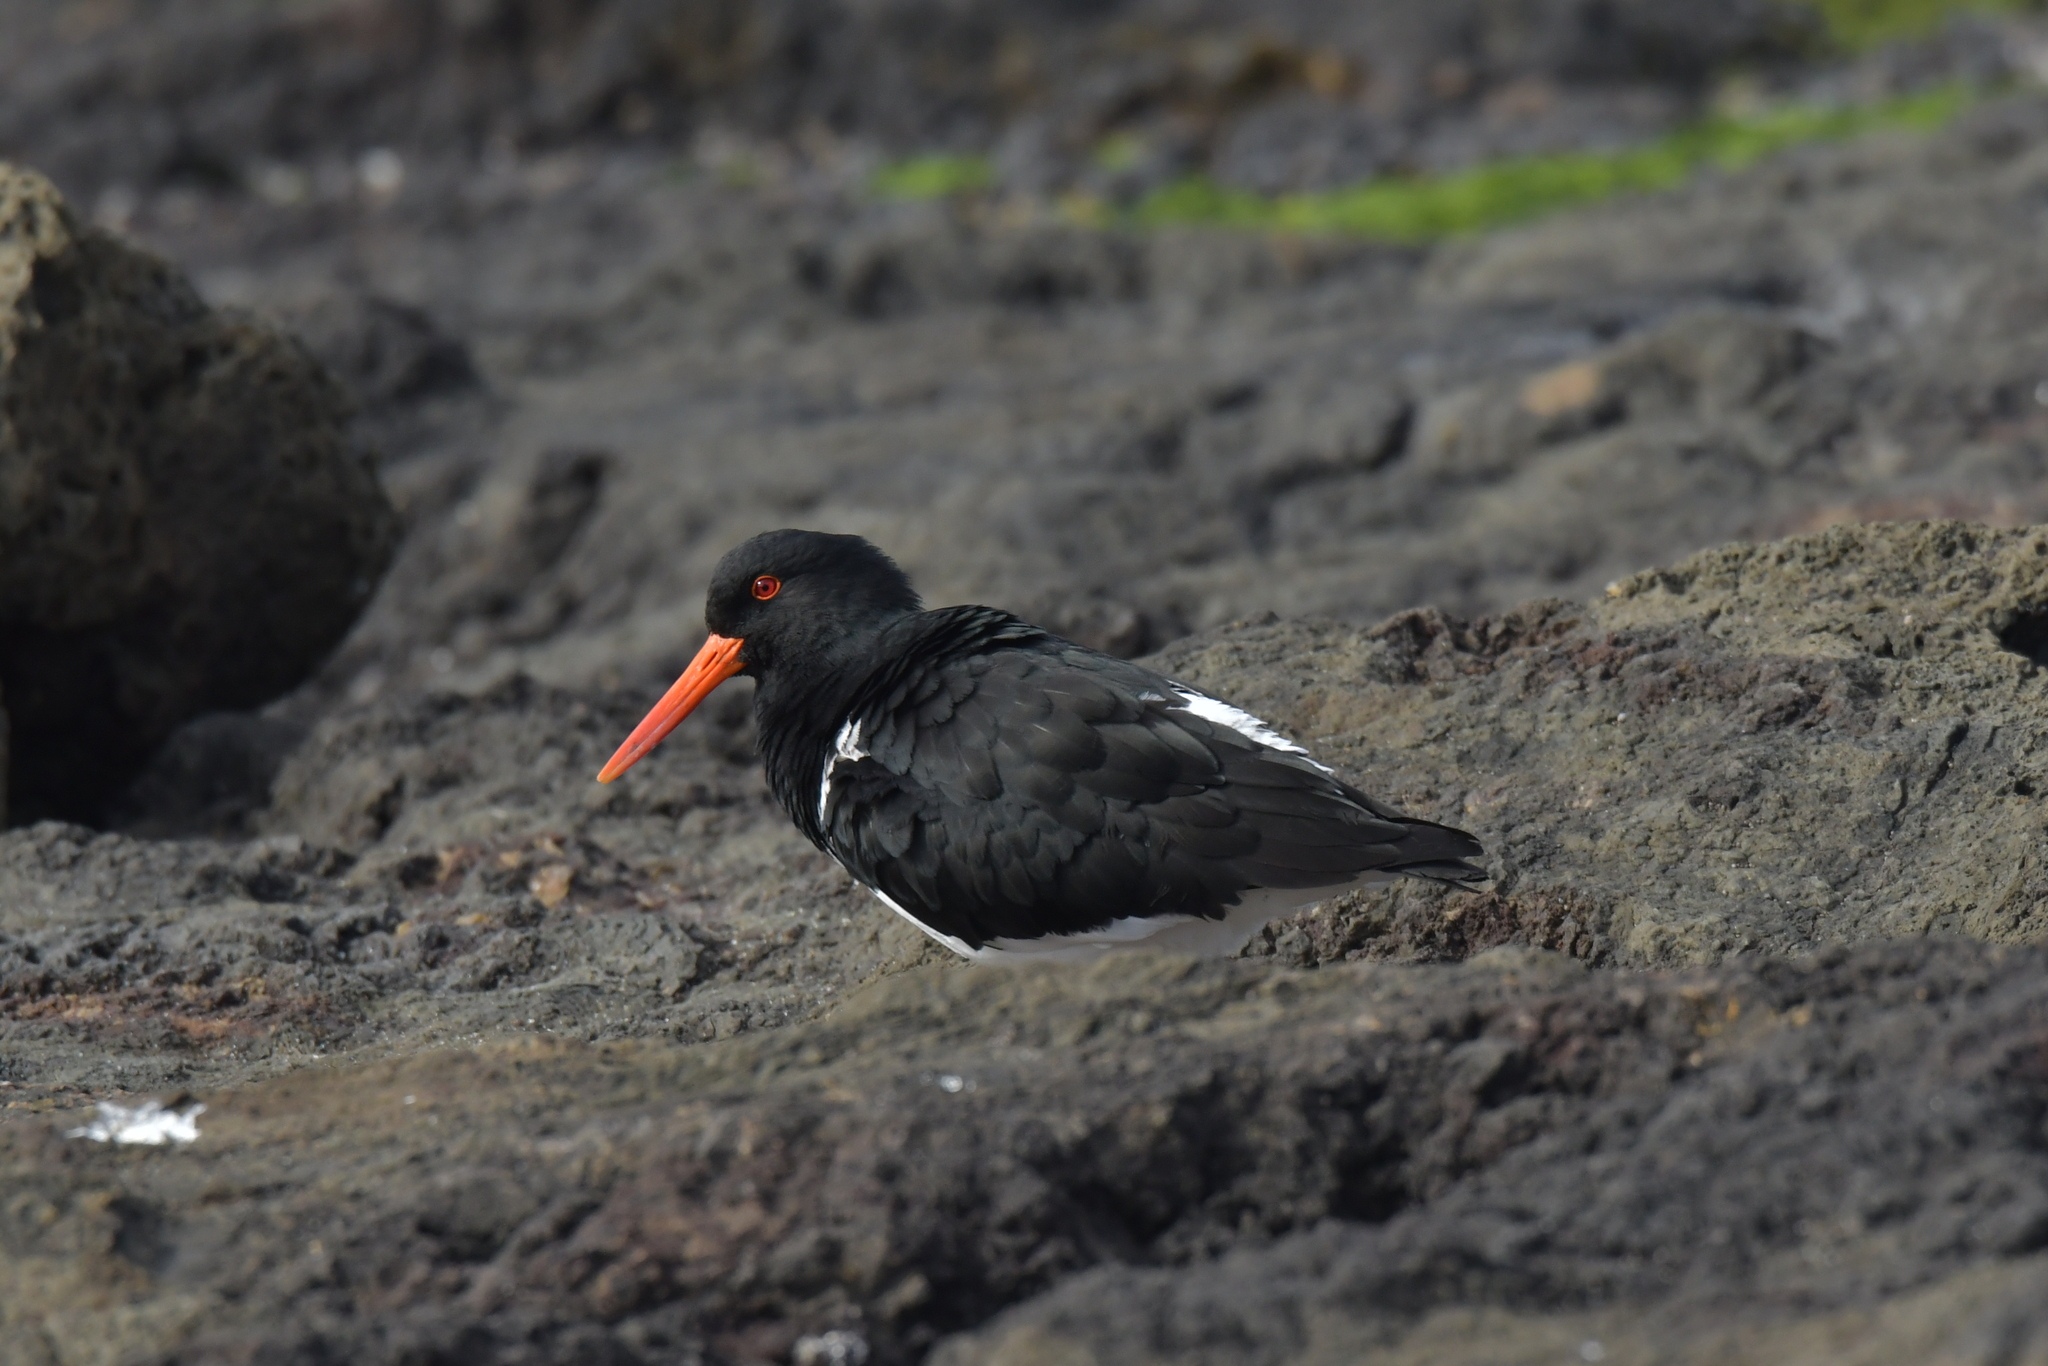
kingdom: Animalia
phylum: Chordata
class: Aves
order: Charadriiformes
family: Haematopodidae
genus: Haematopus
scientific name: Haematopus chathamensis
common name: Chatham oystercatcher
